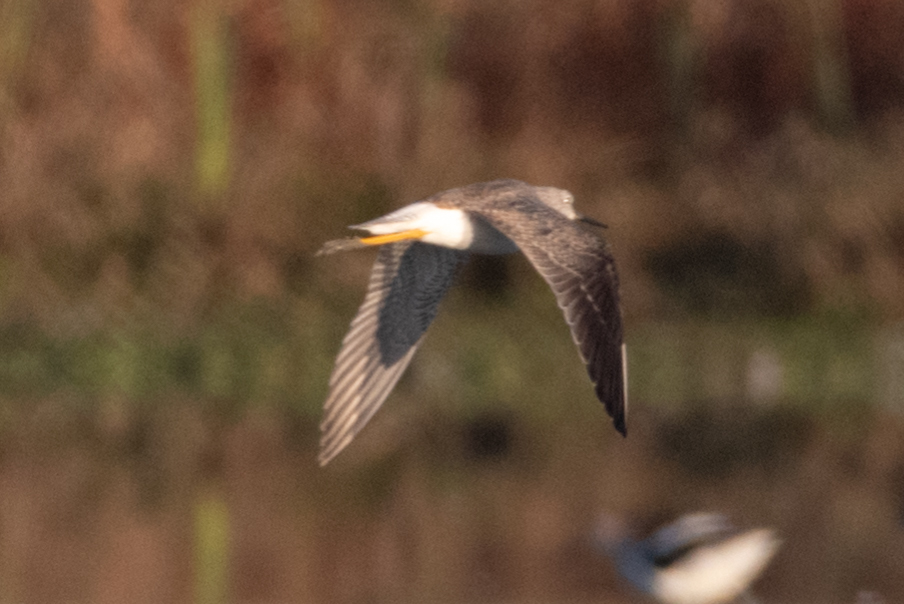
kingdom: Animalia
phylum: Chordata
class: Aves
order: Charadriiformes
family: Scolopacidae
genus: Tringa
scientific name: Tringa melanoleuca
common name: Greater yellowlegs
